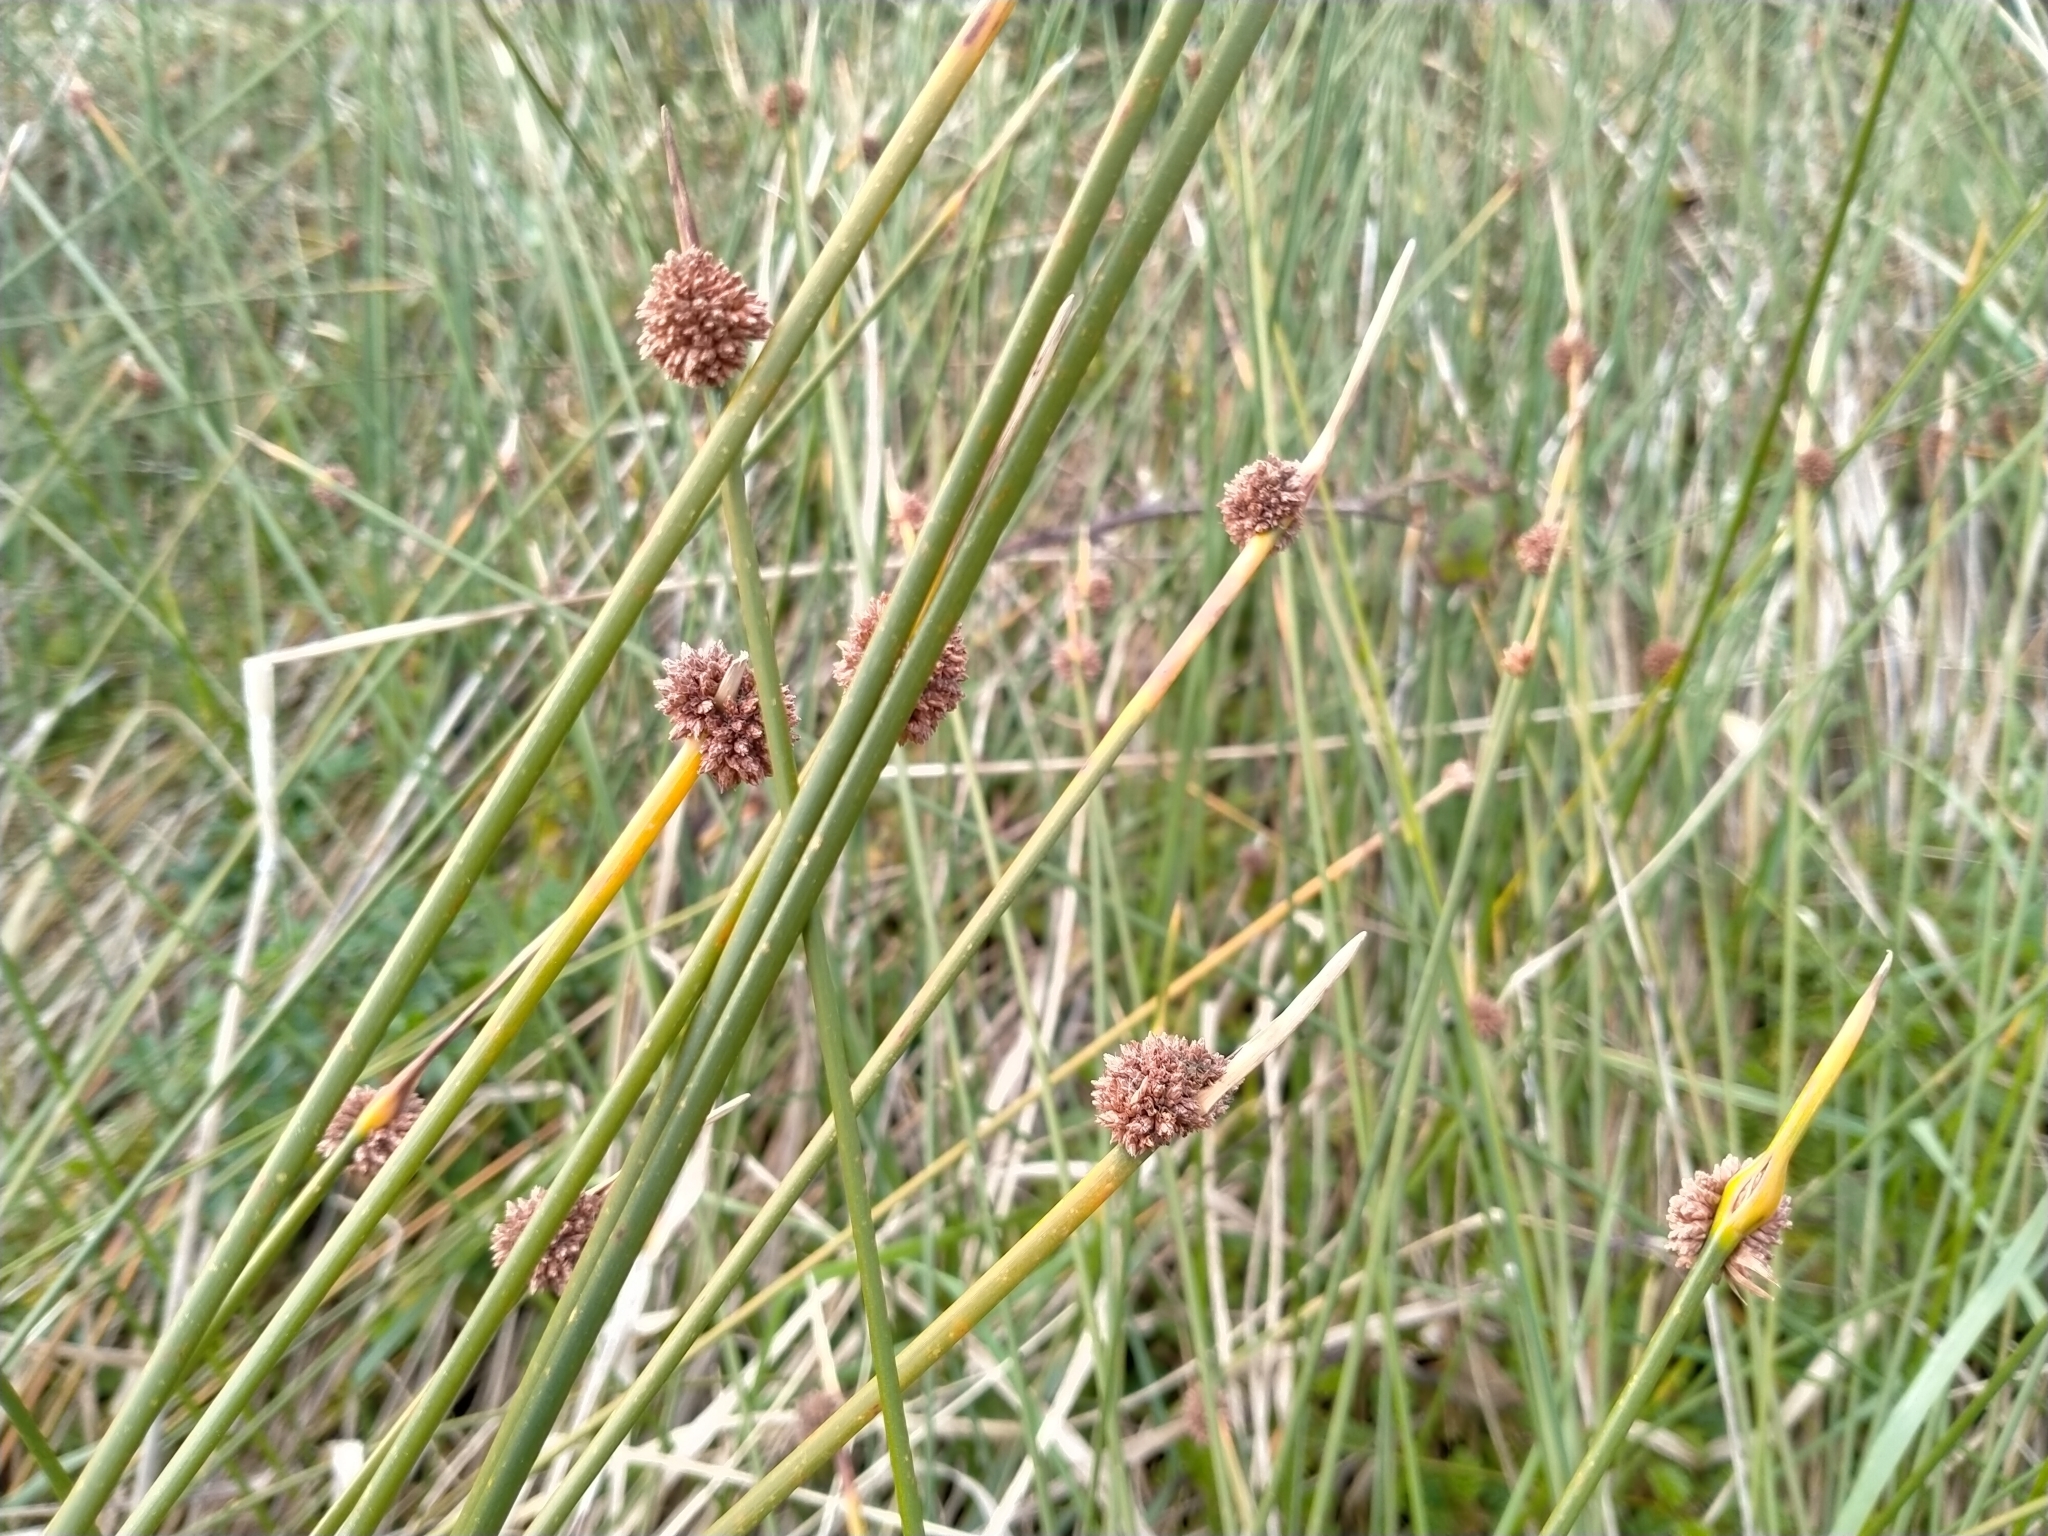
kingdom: Plantae
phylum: Tracheophyta
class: Liliopsida
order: Poales
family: Cyperaceae
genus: Ficinia
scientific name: Ficinia nodosa
